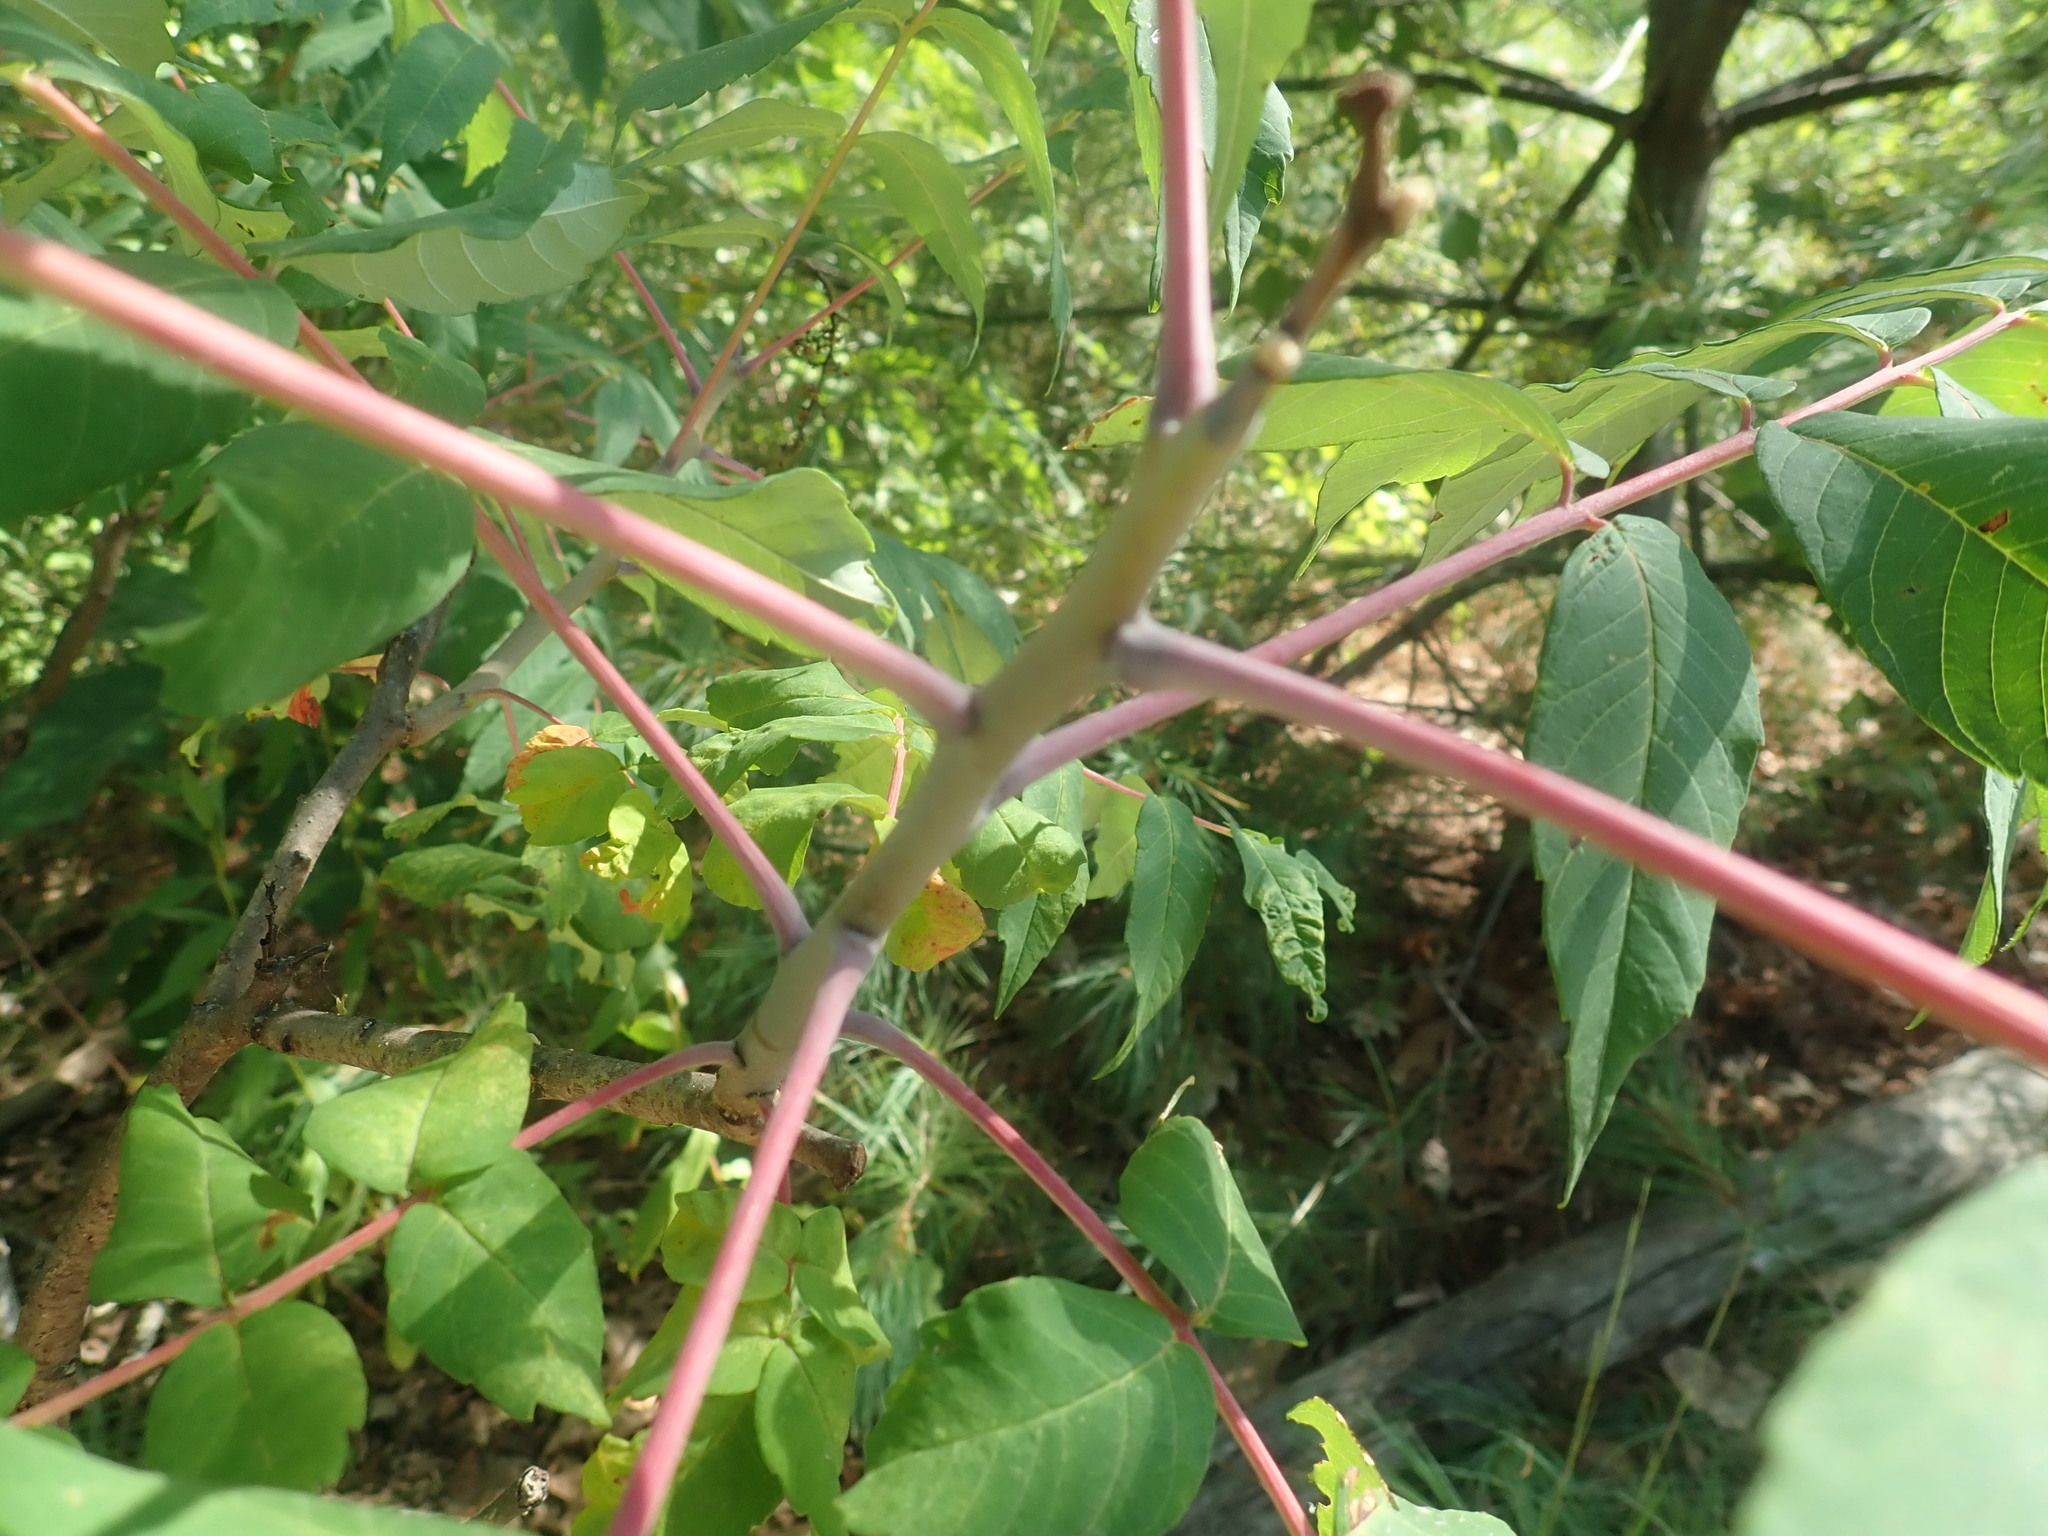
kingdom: Plantae
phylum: Tracheophyta
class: Magnoliopsida
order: Sapindales
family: Anacardiaceae
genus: Rhus
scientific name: Rhus glabra
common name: Scarlet sumac
